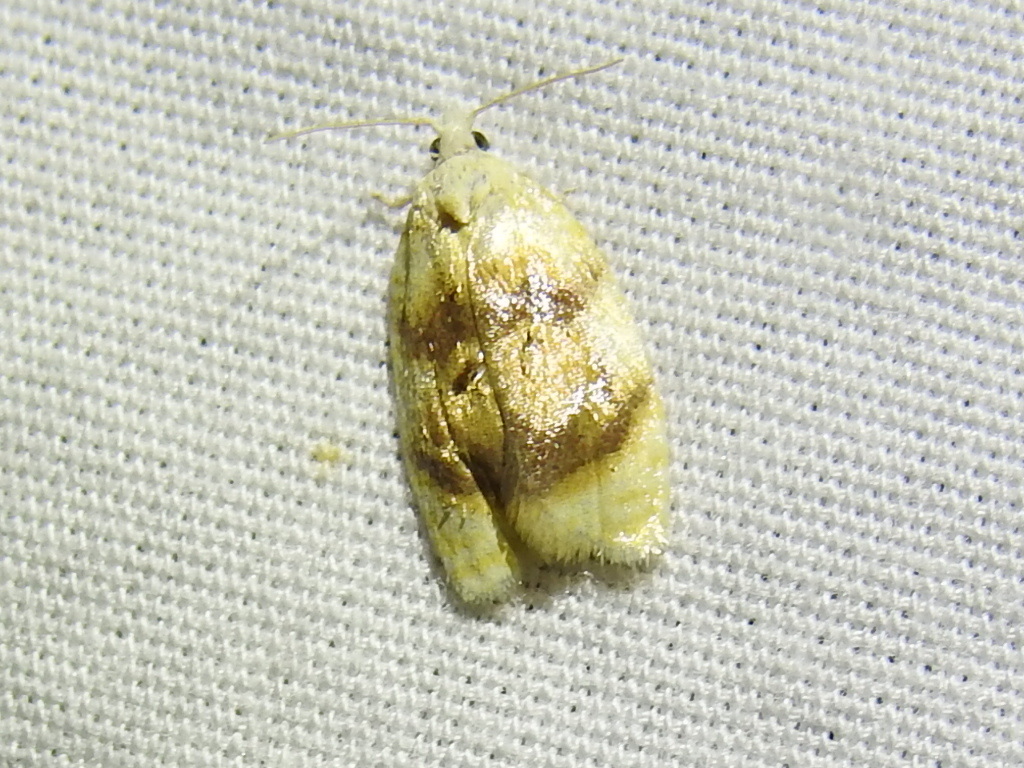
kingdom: Animalia
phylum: Arthropoda
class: Insecta
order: Lepidoptera
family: Tortricidae
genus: Acleris
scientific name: Acleris semipurpurana
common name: Oak leaftier moth
